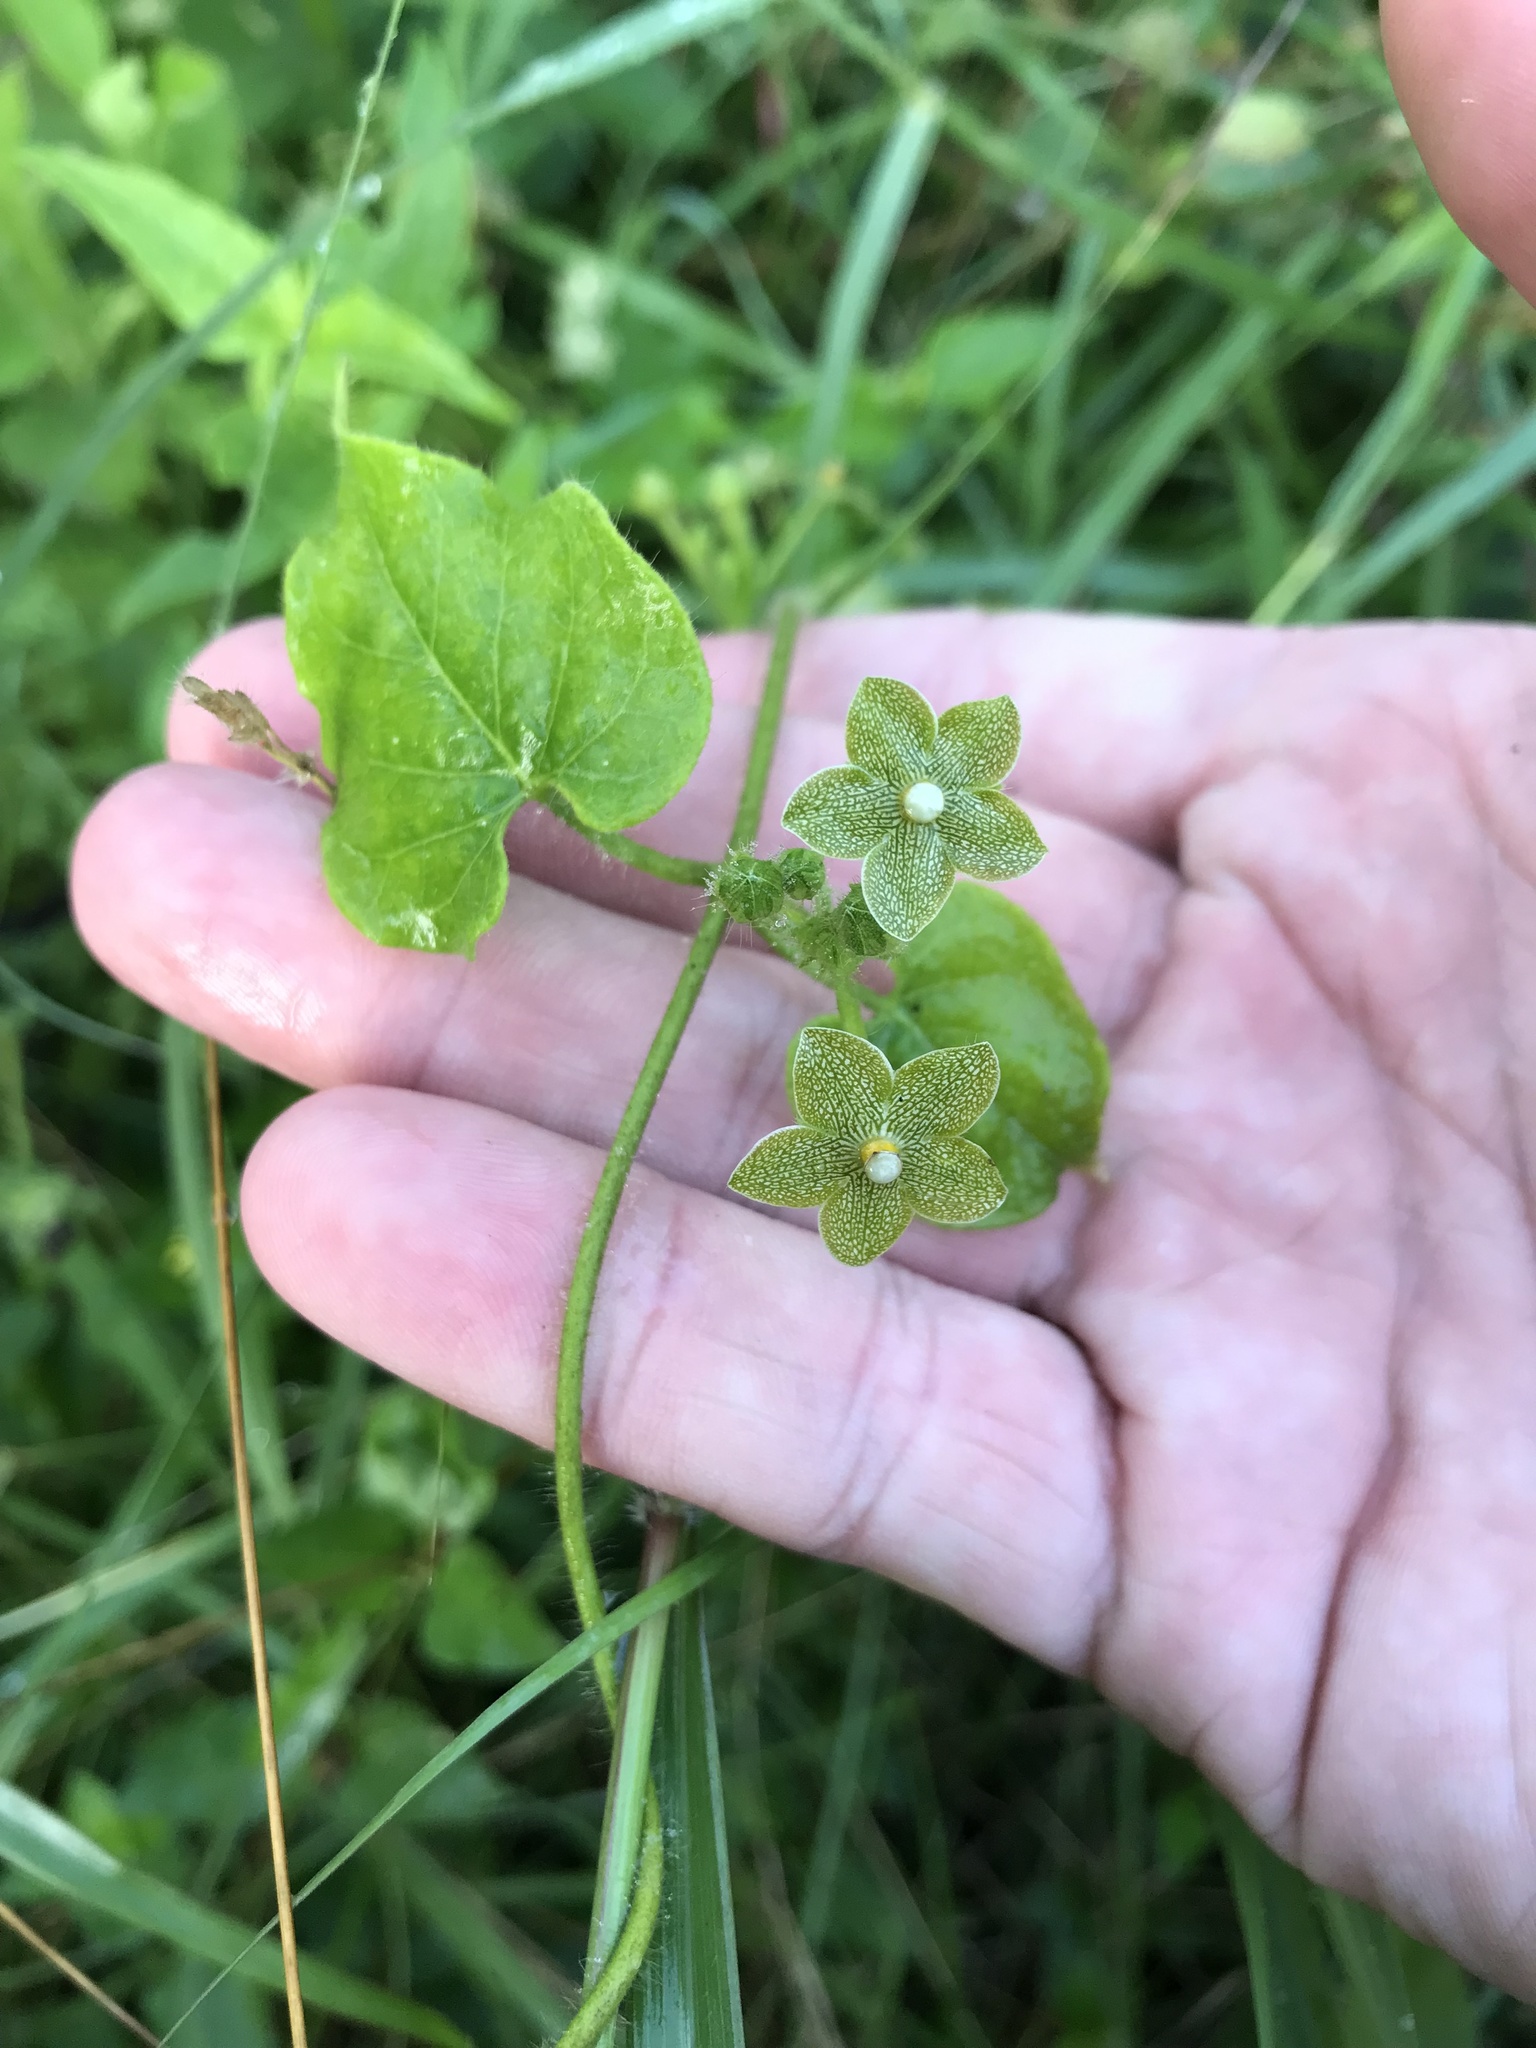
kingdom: Plantae
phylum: Tracheophyta
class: Magnoliopsida
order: Gentianales
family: Apocynaceae
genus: Dictyanthus
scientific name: Dictyanthus reticulatus
